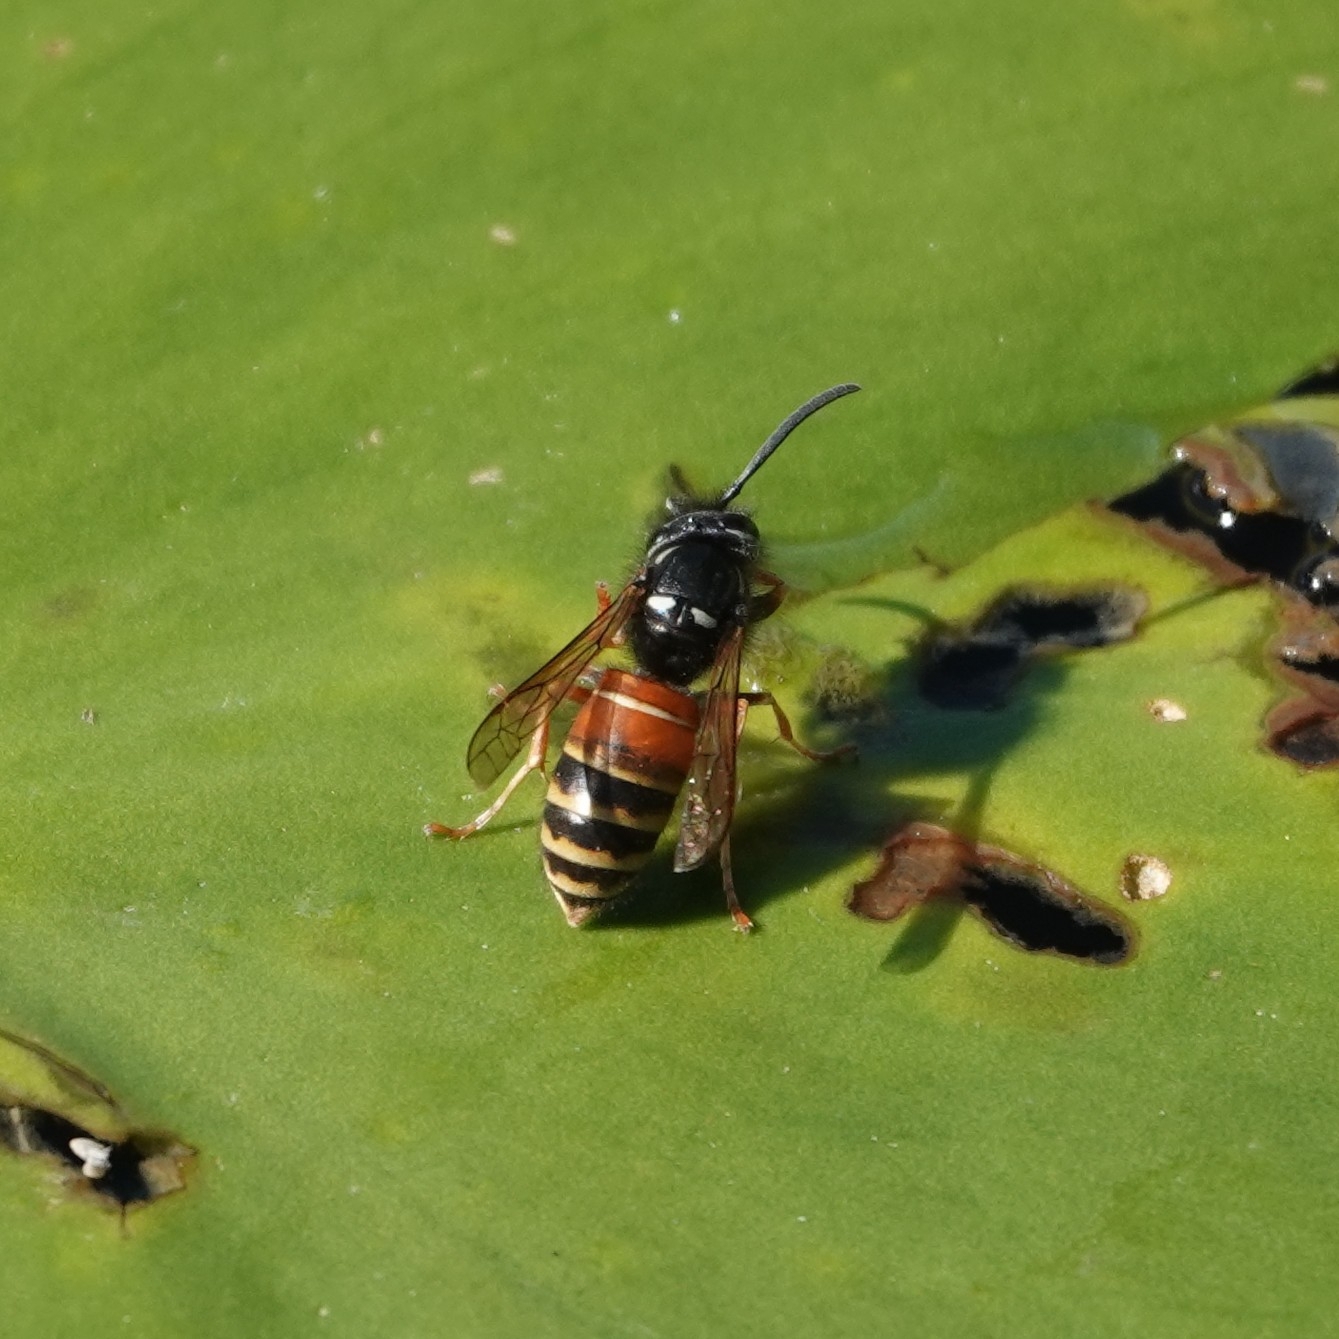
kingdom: Animalia
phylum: Arthropoda
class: Insecta
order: Hymenoptera
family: Vespidae
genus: Vespula
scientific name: Vespula rufa
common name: Red wasp
